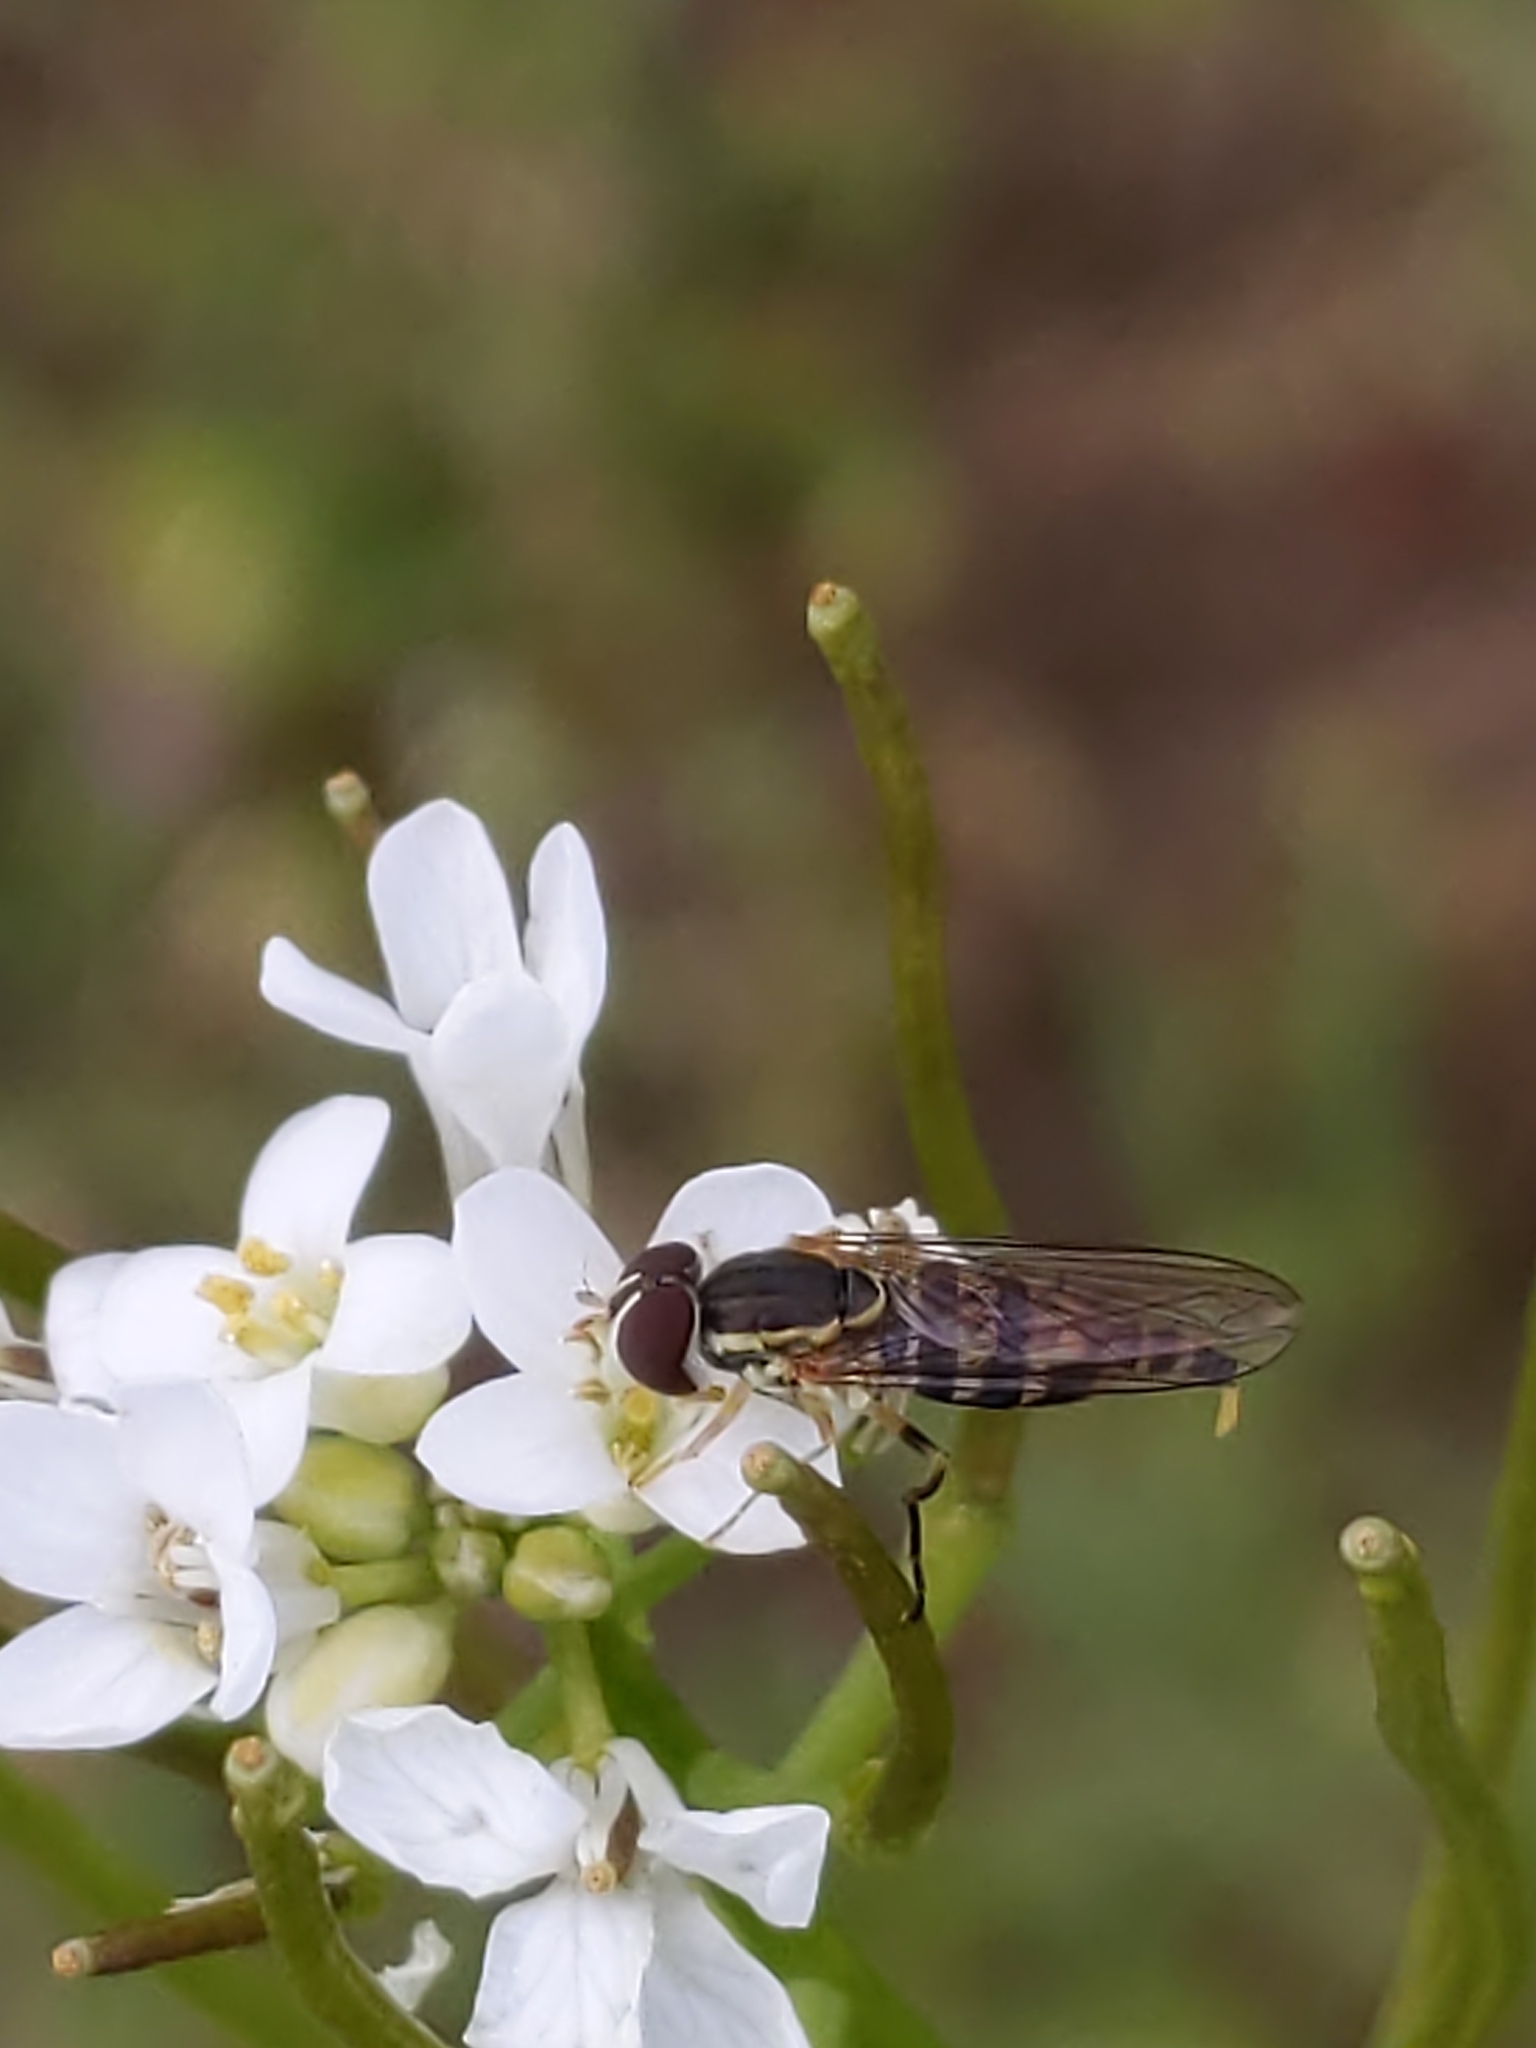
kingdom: Animalia
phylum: Arthropoda
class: Insecta
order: Diptera
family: Syrphidae
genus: Toxomerus
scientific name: Toxomerus geminatus
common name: Eastern calligrapher
